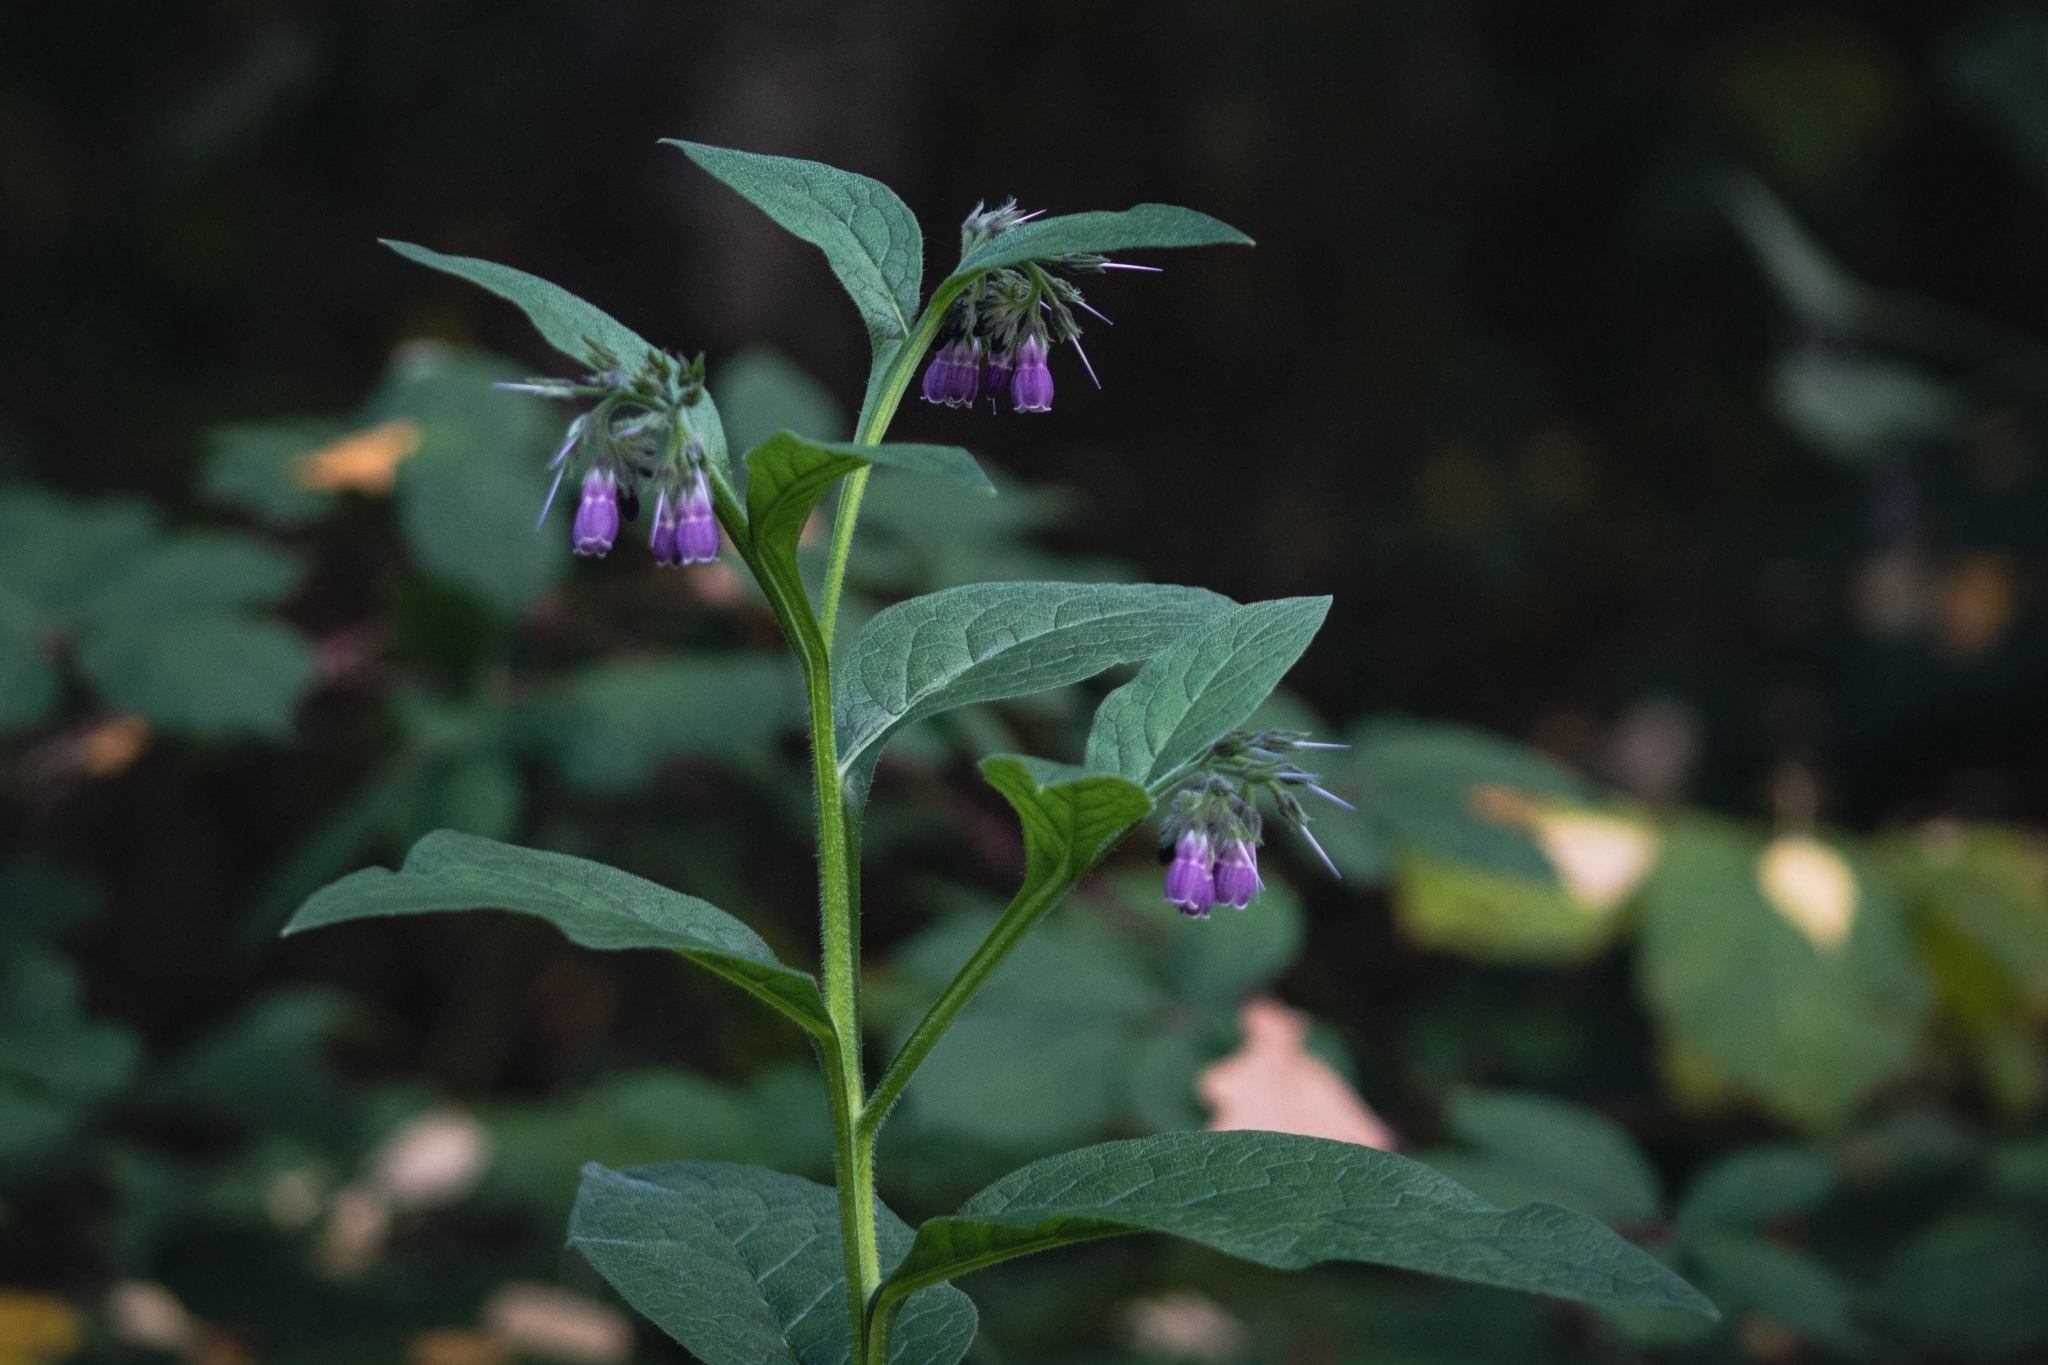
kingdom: Plantae
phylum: Tracheophyta
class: Magnoliopsida
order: Boraginales
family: Boraginaceae
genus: Symphytum
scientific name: Symphytum officinale
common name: Common comfrey
